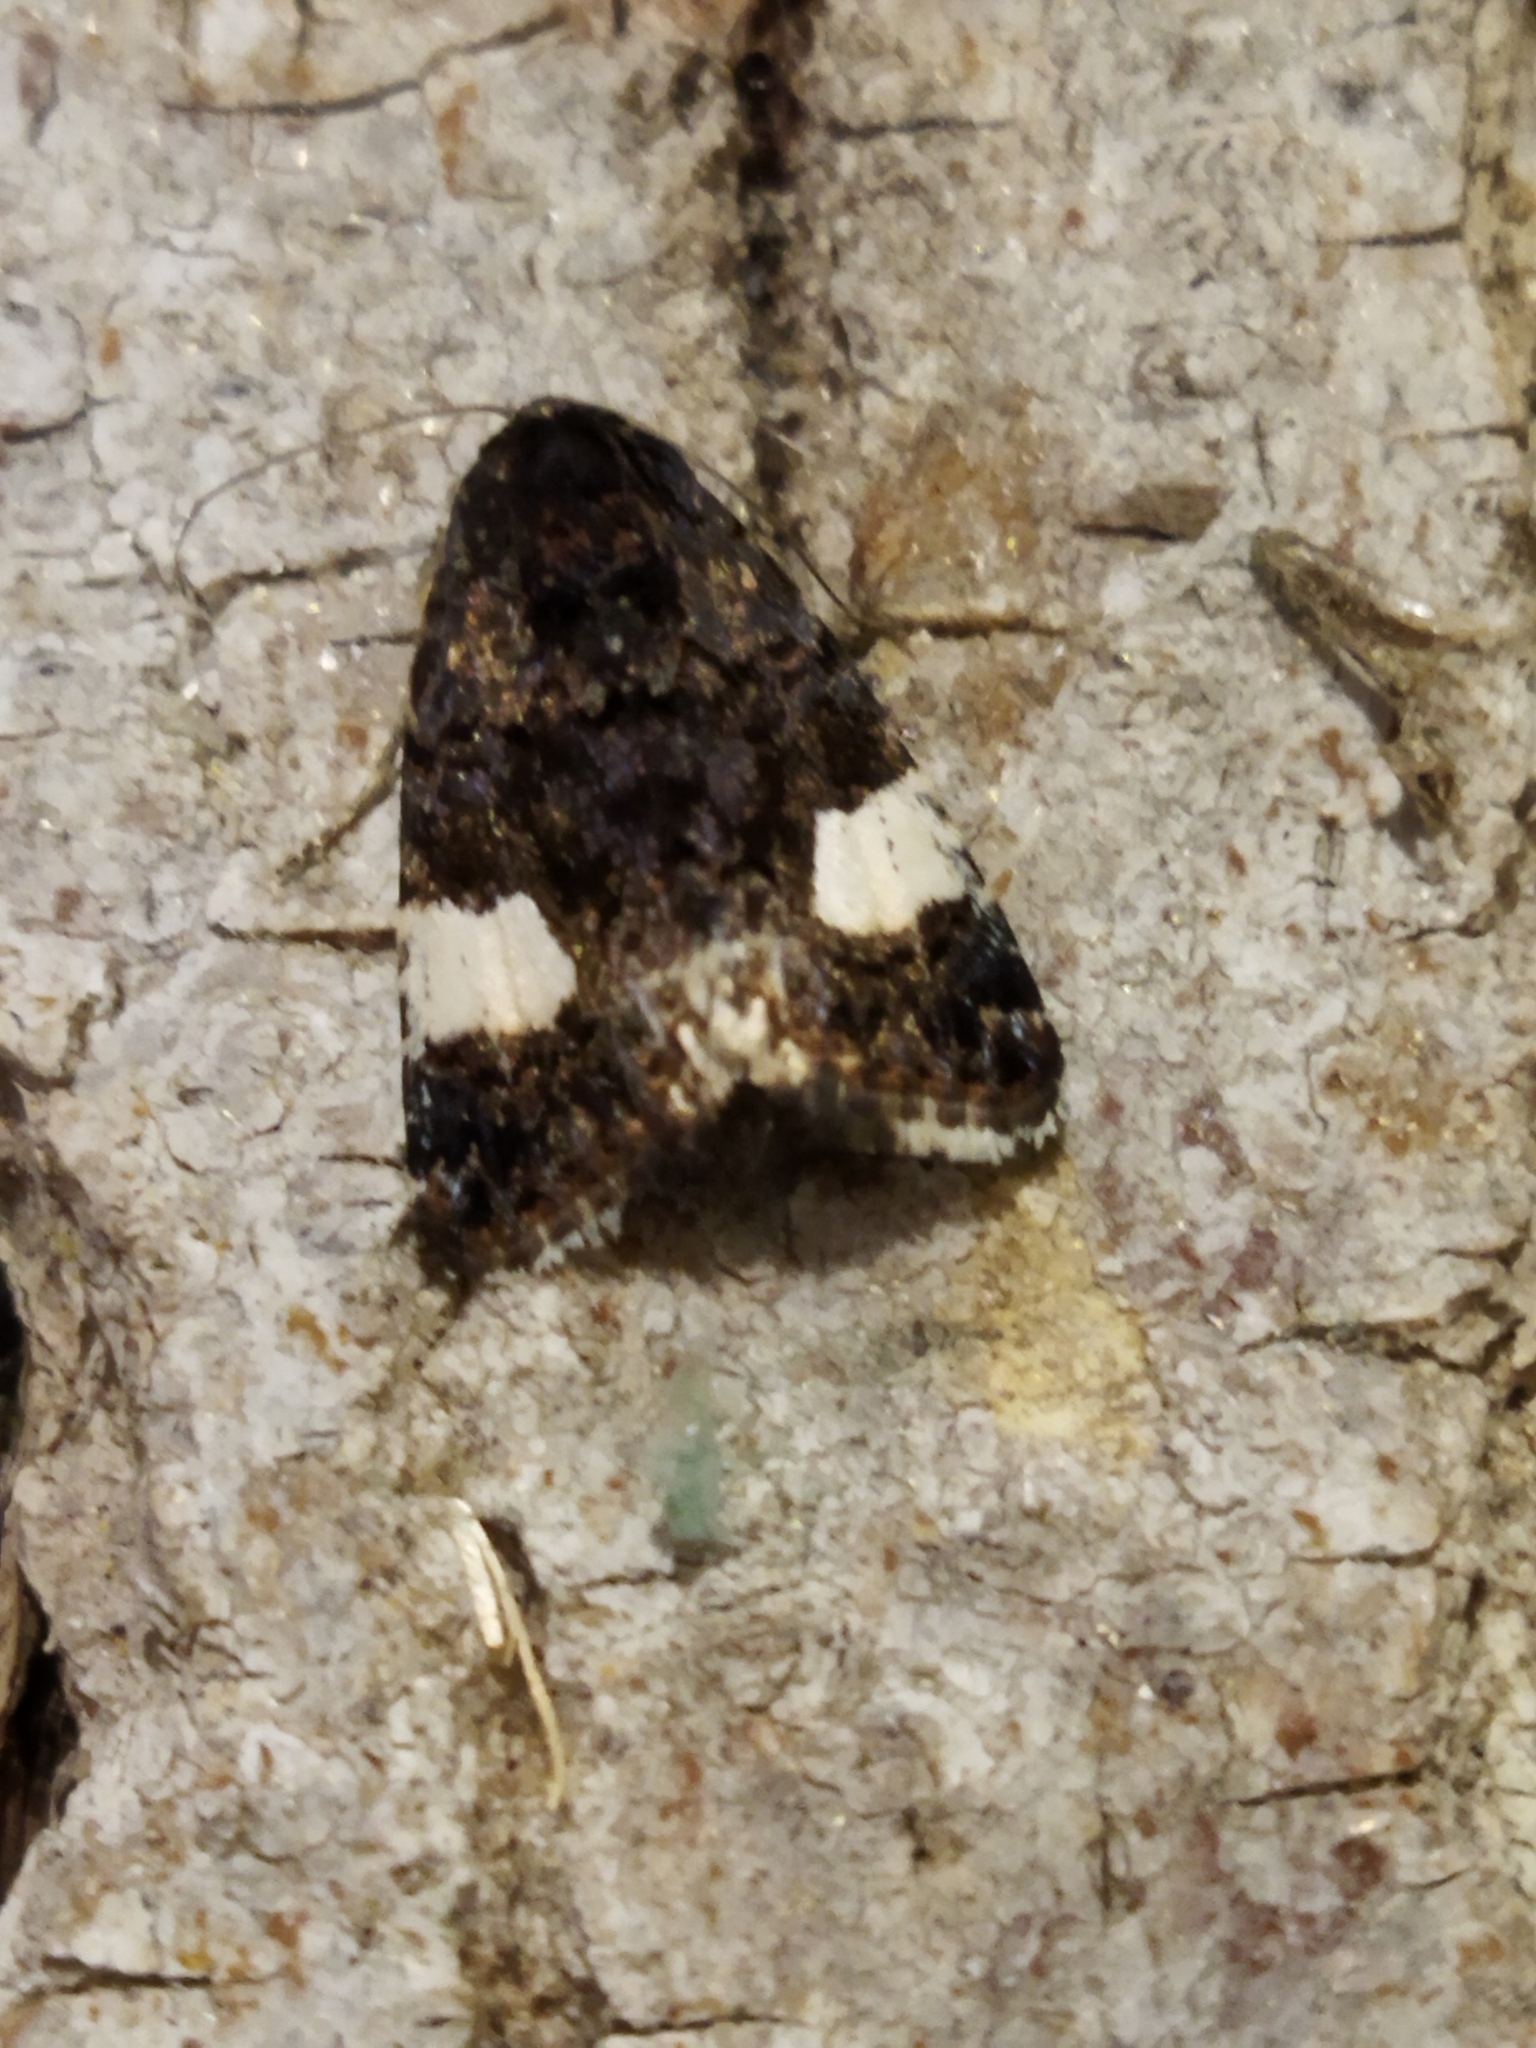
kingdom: Animalia
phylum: Arthropoda
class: Insecta
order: Lepidoptera
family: Erebidae
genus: Tyta
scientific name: Tyta luctuosa
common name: Four-spotted
